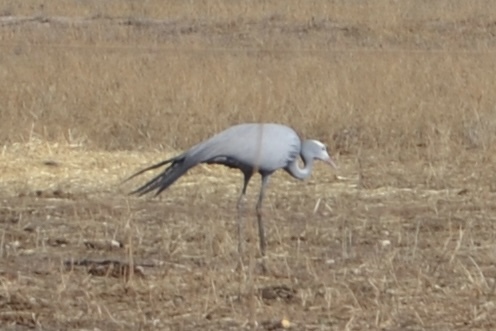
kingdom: Animalia
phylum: Chordata
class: Aves
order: Gruiformes
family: Gruidae
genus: Anthropoides
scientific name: Anthropoides paradiseus
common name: Blue crane
